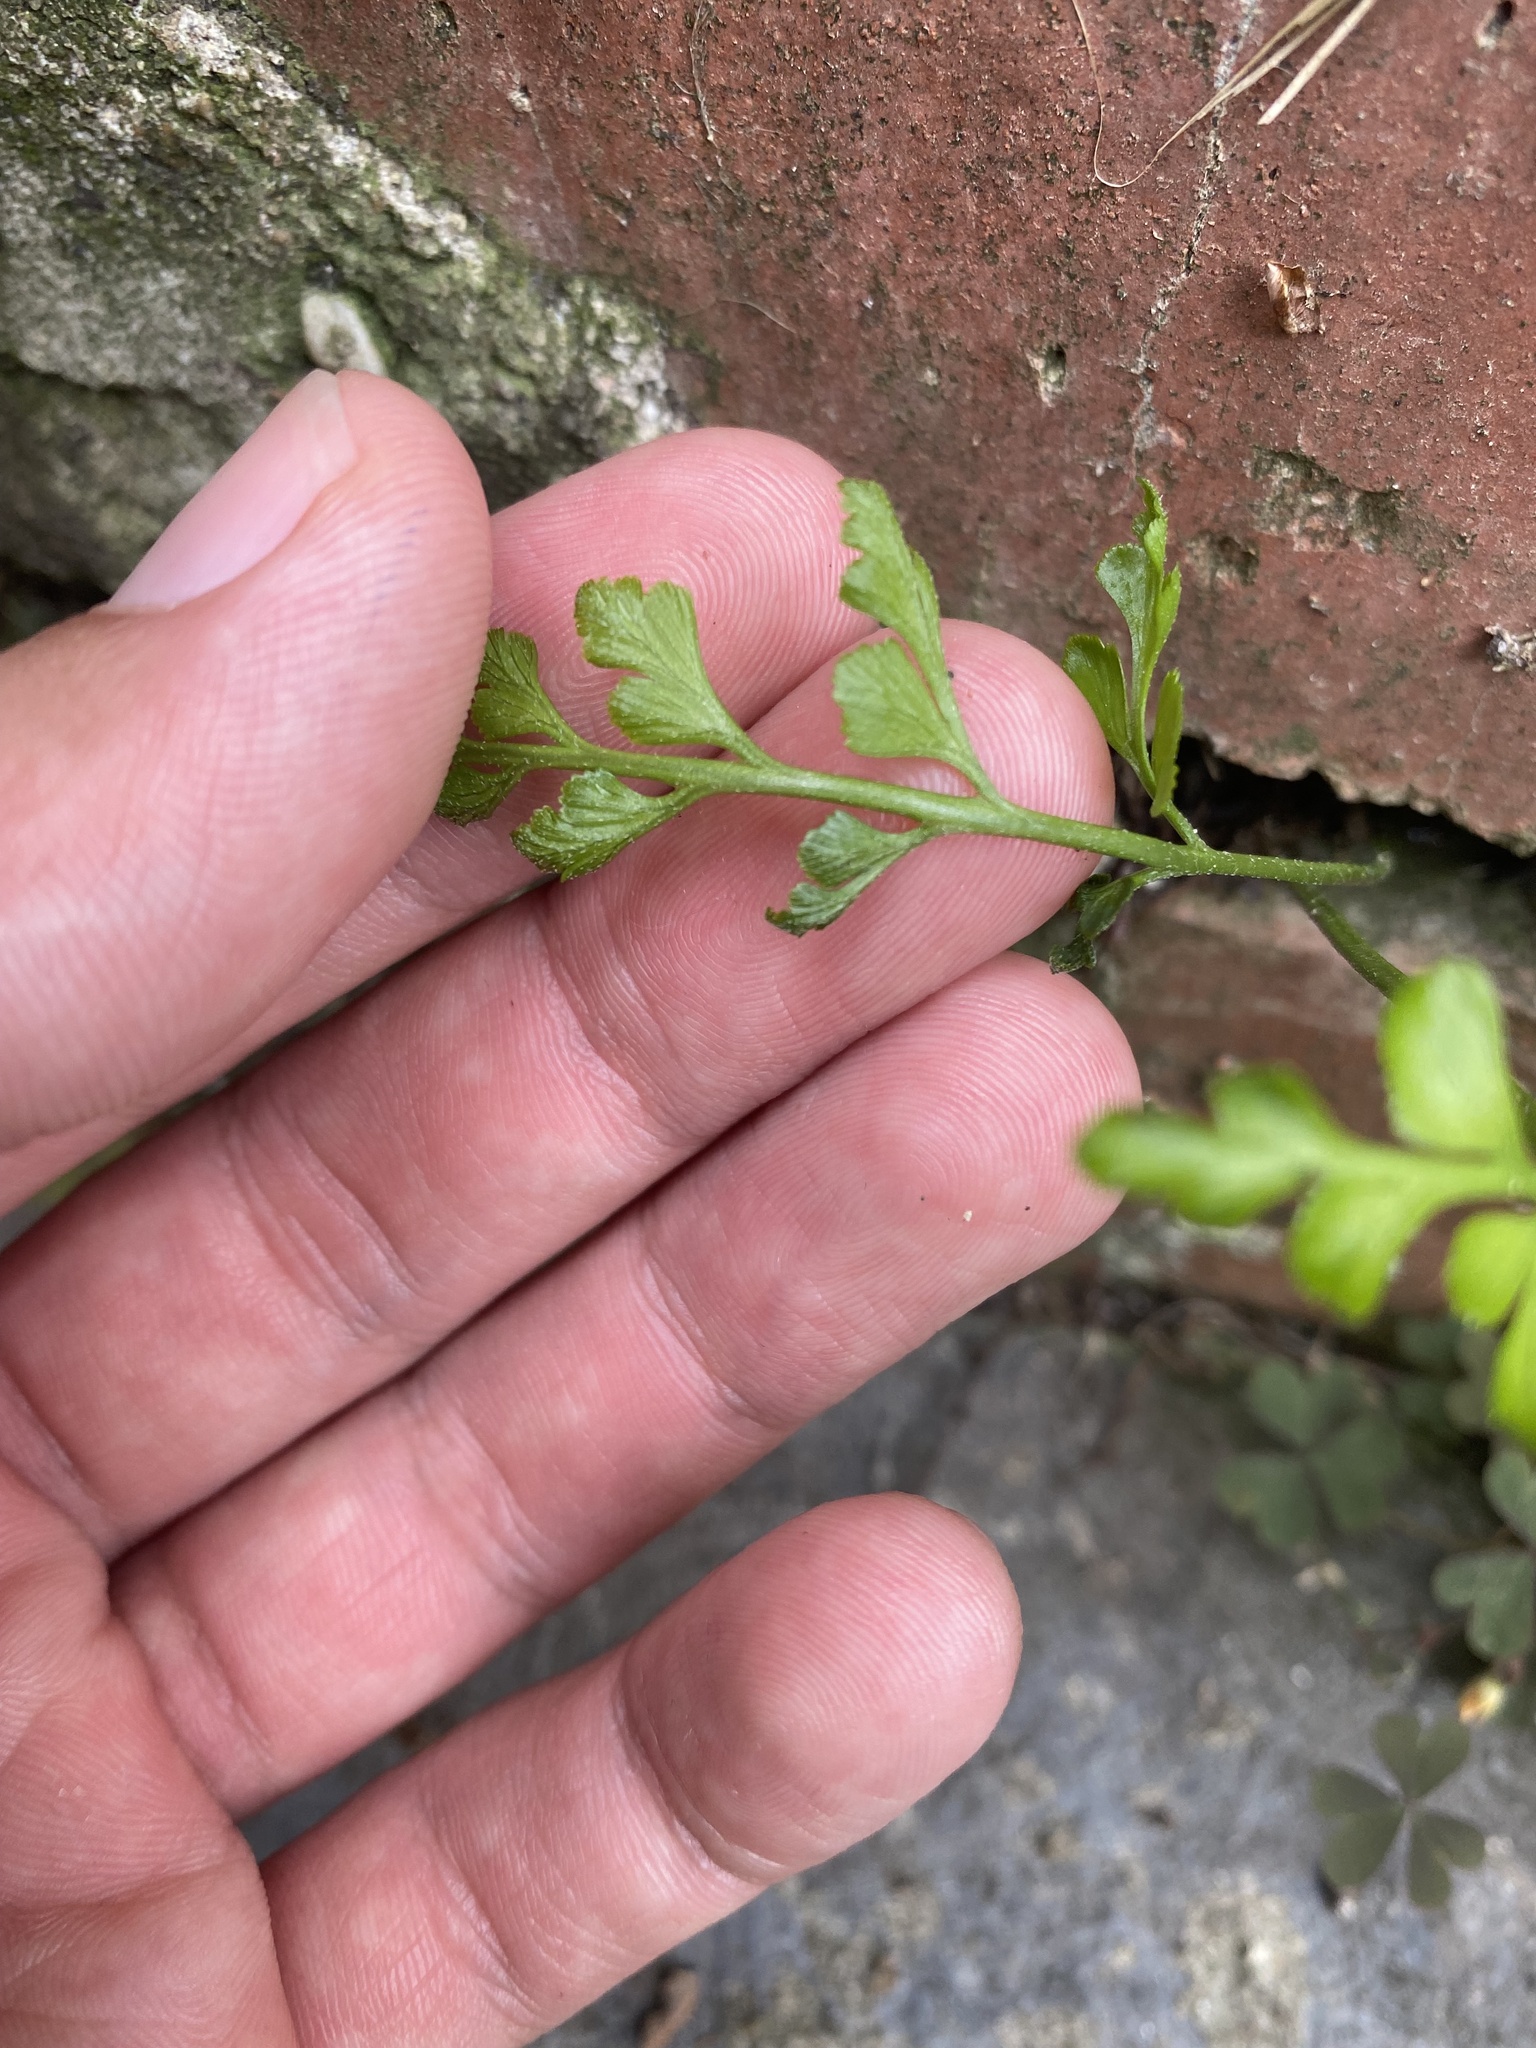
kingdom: Plantae
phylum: Tracheophyta
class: Polypodiopsida
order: Polypodiales
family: Aspleniaceae
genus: Asplenium
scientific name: Asplenium ruta-muraria
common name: Wall-rue
